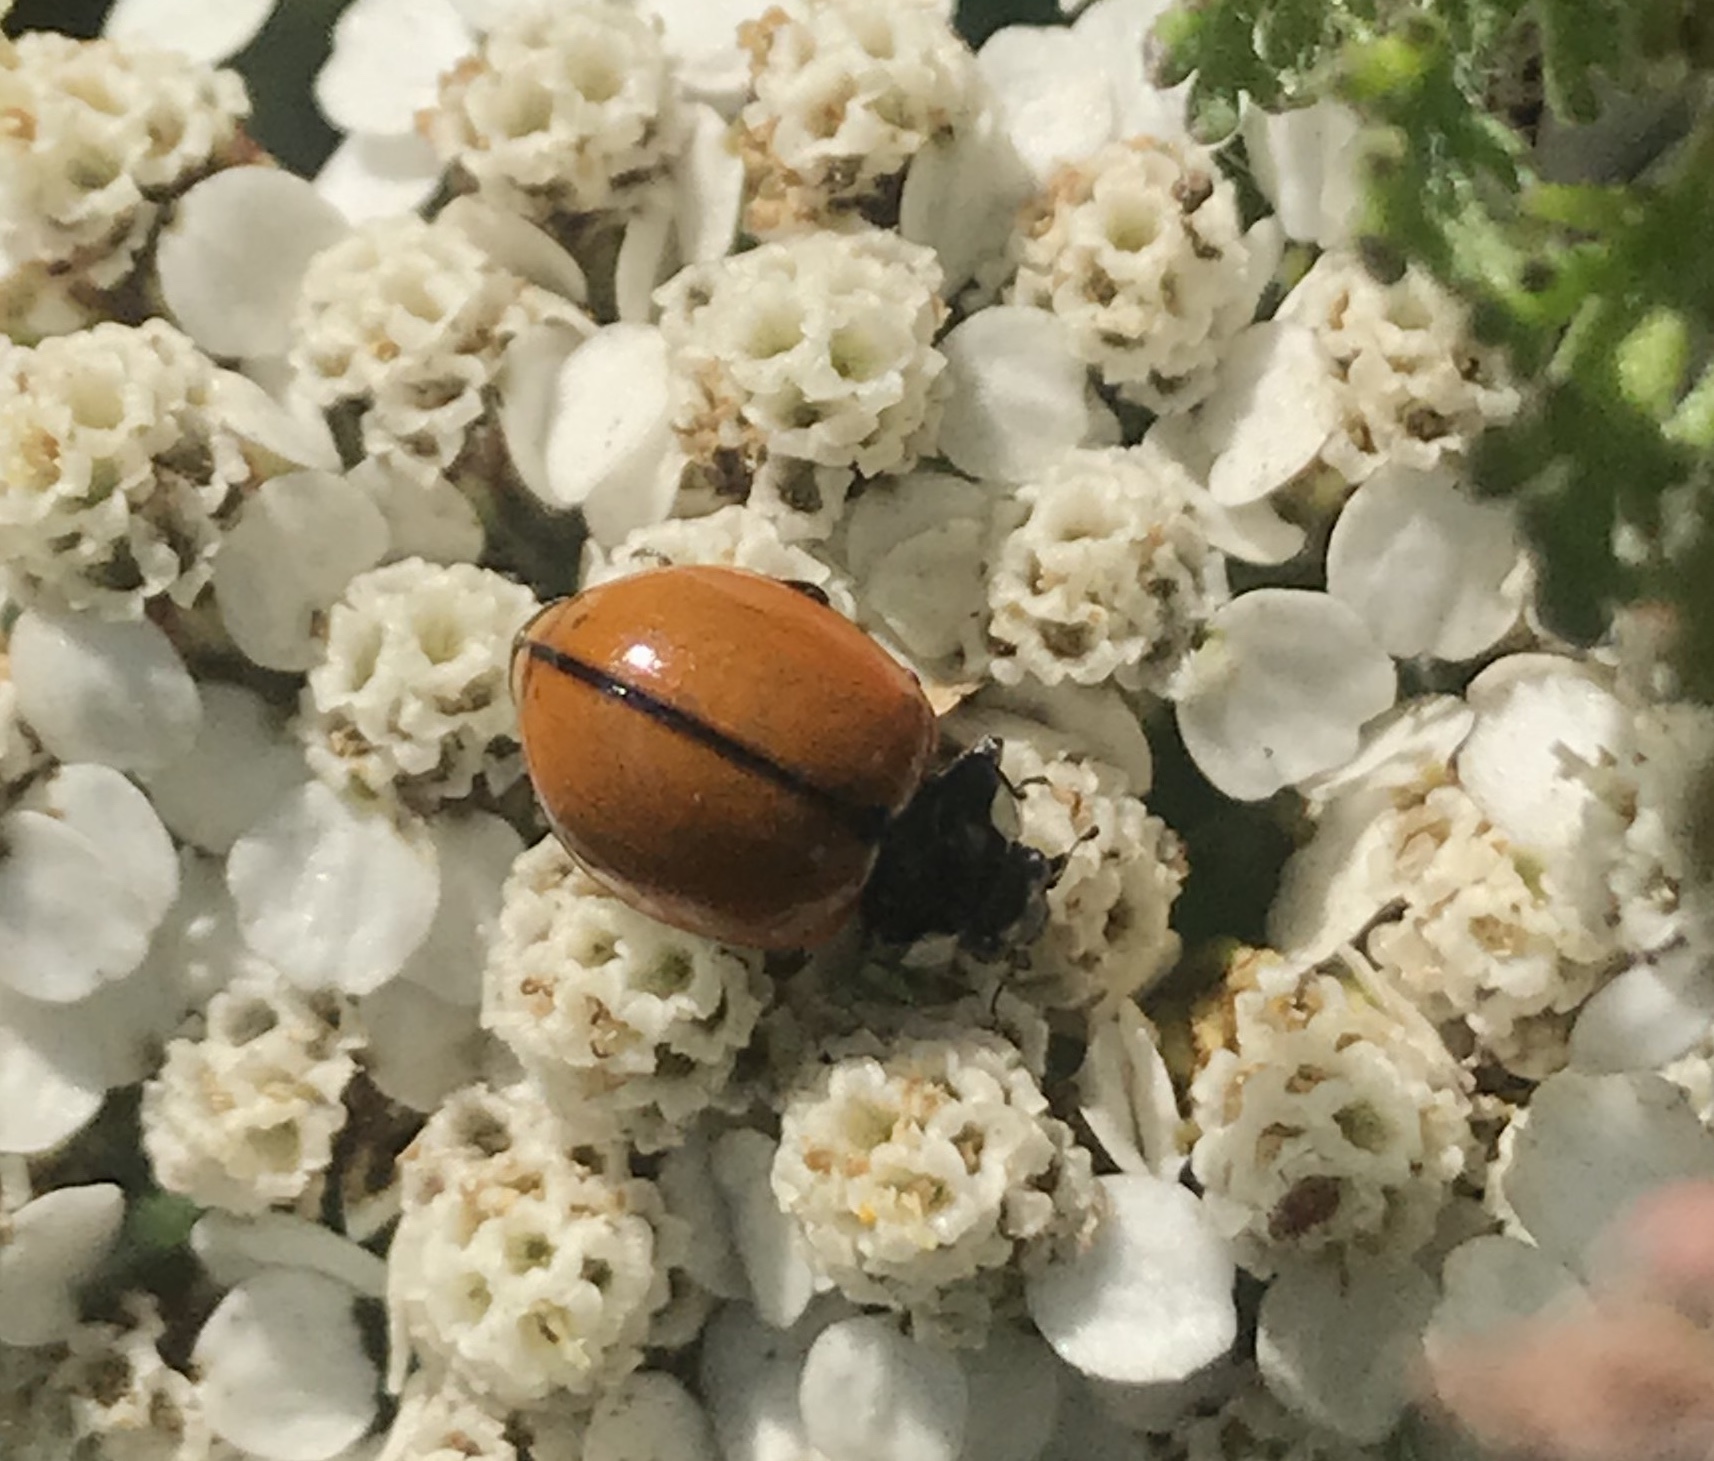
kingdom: Animalia
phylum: Arthropoda
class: Insecta
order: Coleoptera
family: Coccinellidae
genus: Coccinella
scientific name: Coccinella californica
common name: Lady beetle
